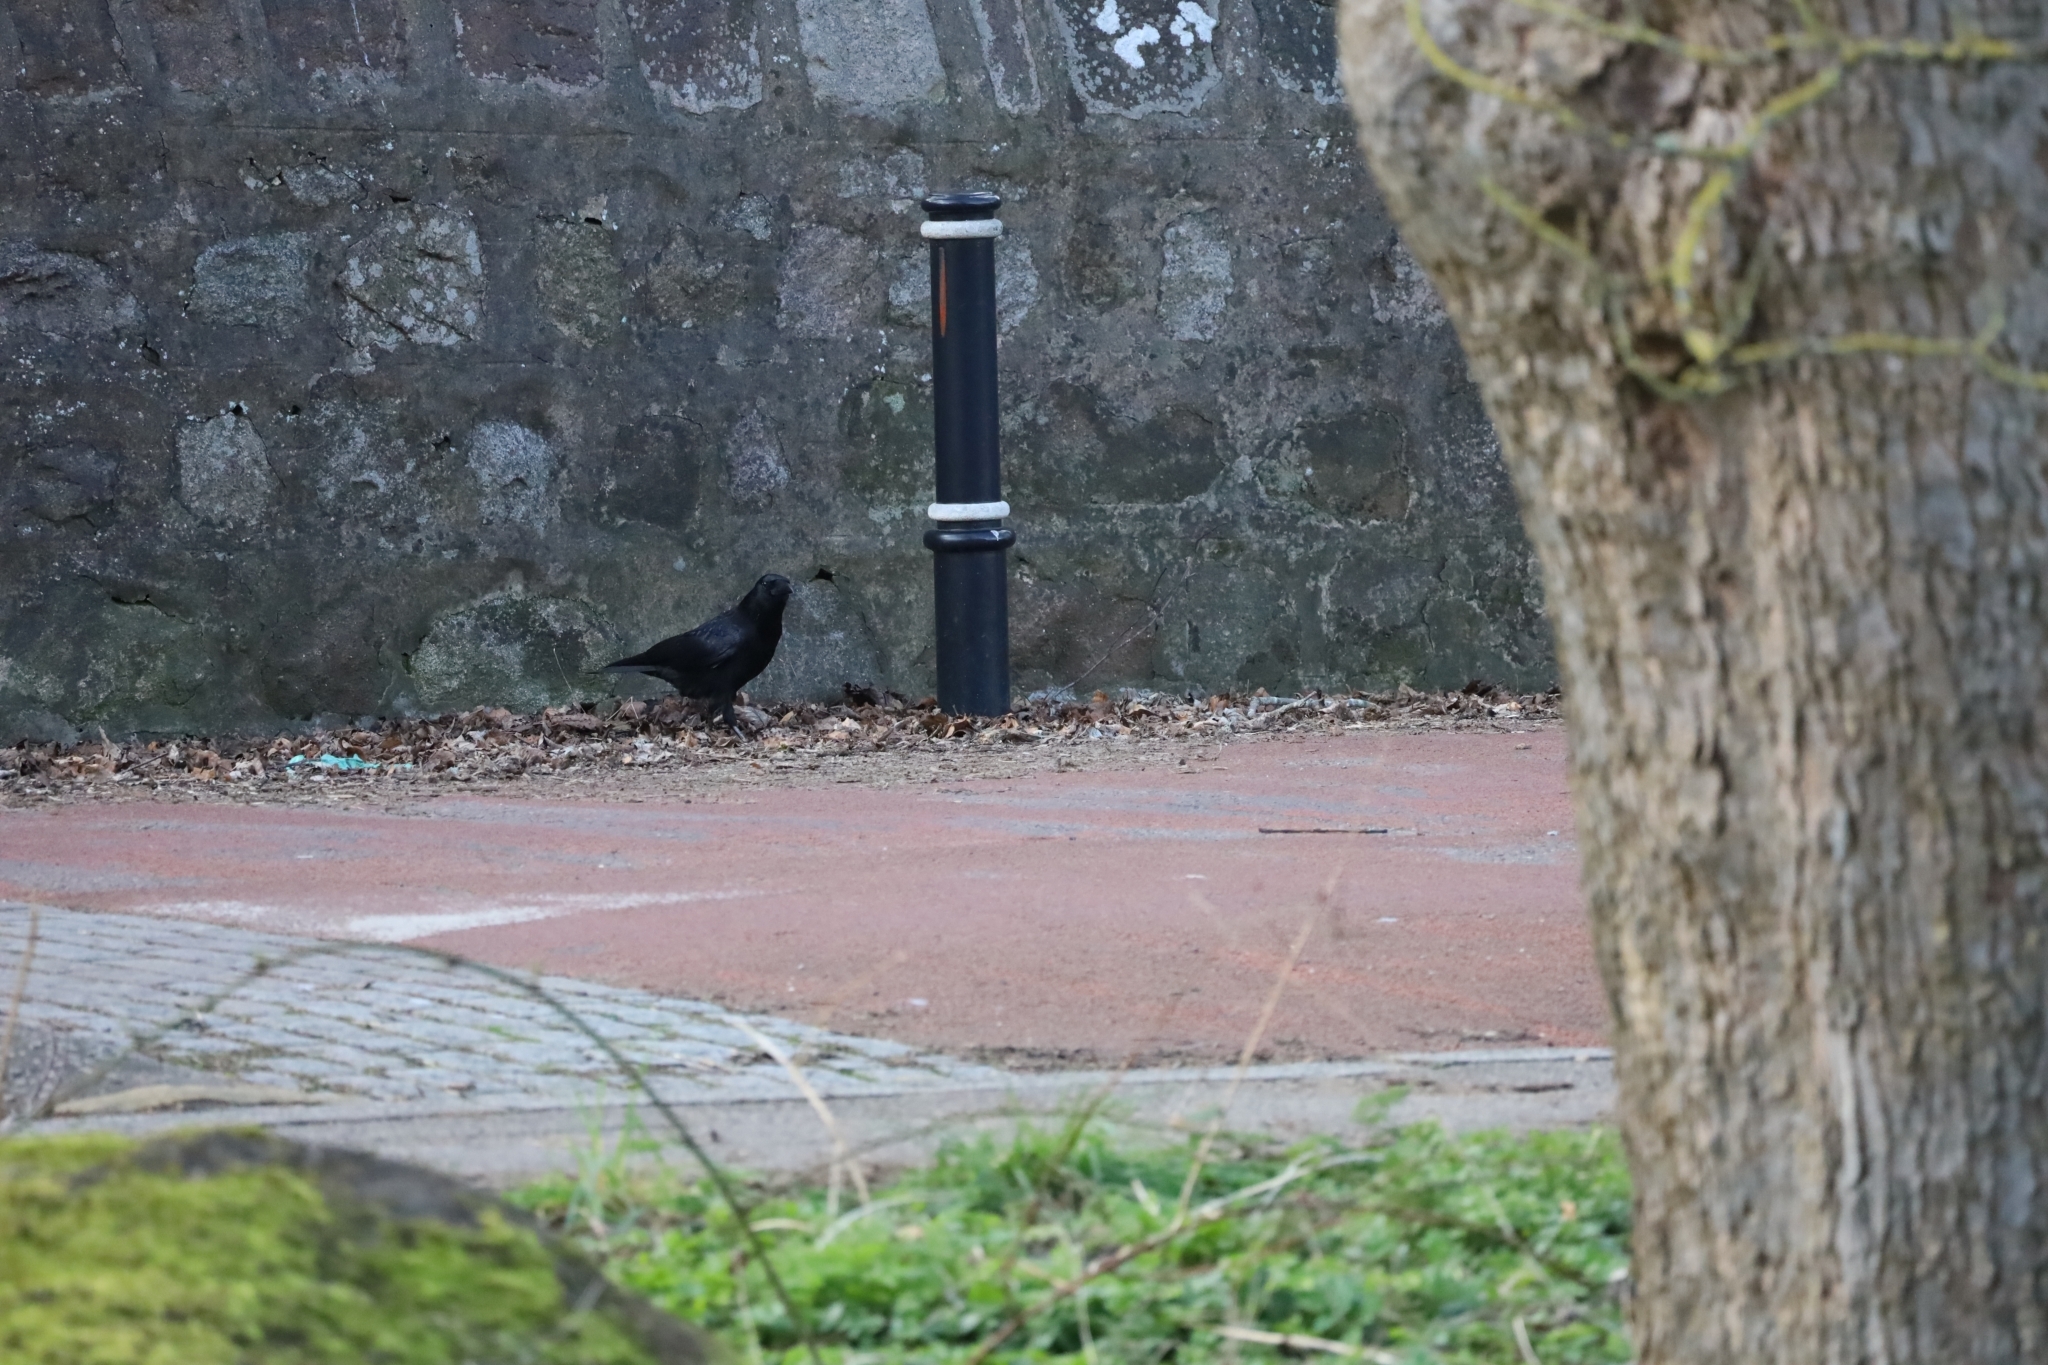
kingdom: Animalia
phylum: Chordata
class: Aves
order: Passeriformes
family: Corvidae
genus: Corvus
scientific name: Corvus corone
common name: Carrion crow
